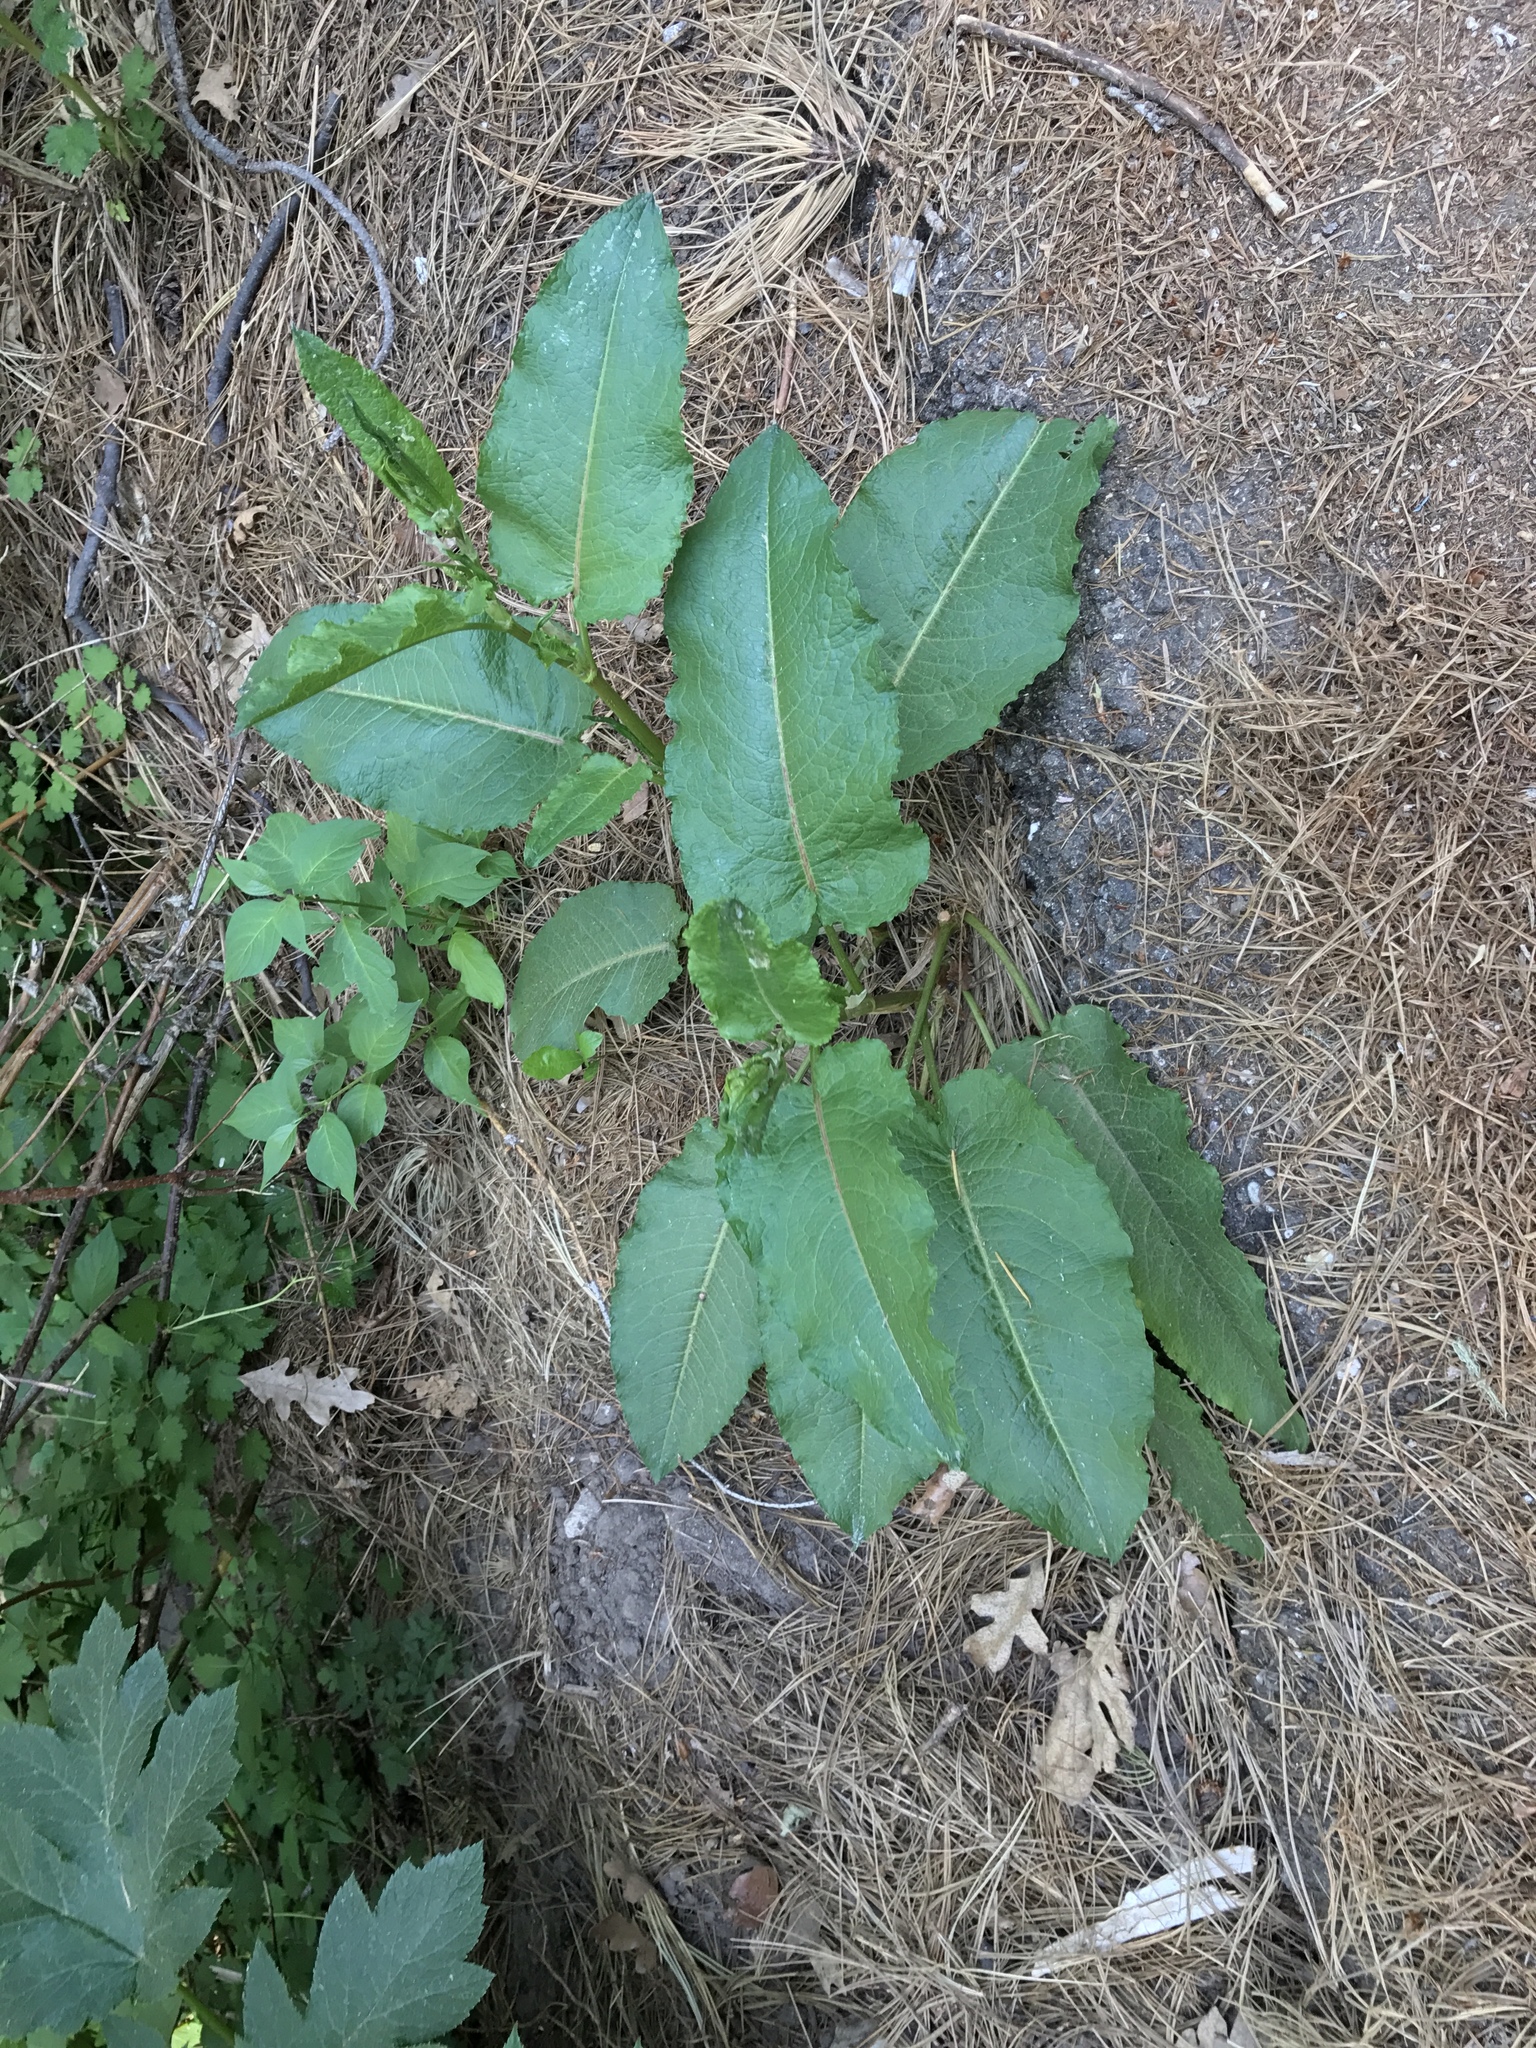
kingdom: Plantae
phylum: Tracheophyta
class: Magnoliopsida
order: Caryophyllales
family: Polygonaceae
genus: Rumex
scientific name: Rumex obtusifolius
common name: Bitter dock
